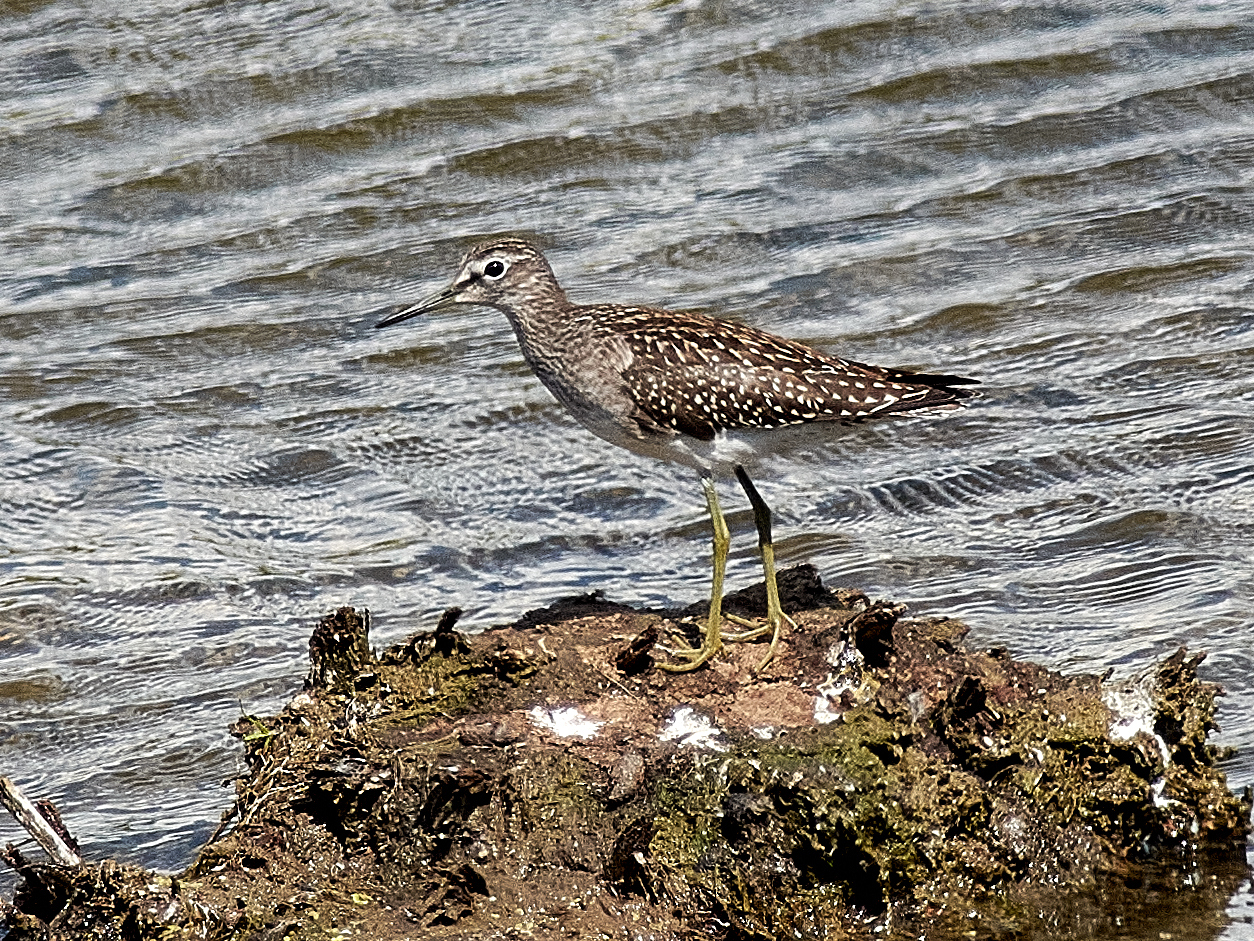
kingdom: Animalia
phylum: Chordata
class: Aves
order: Charadriiformes
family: Scolopacidae
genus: Tringa
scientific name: Tringa glareola
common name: Wood sandpiper
